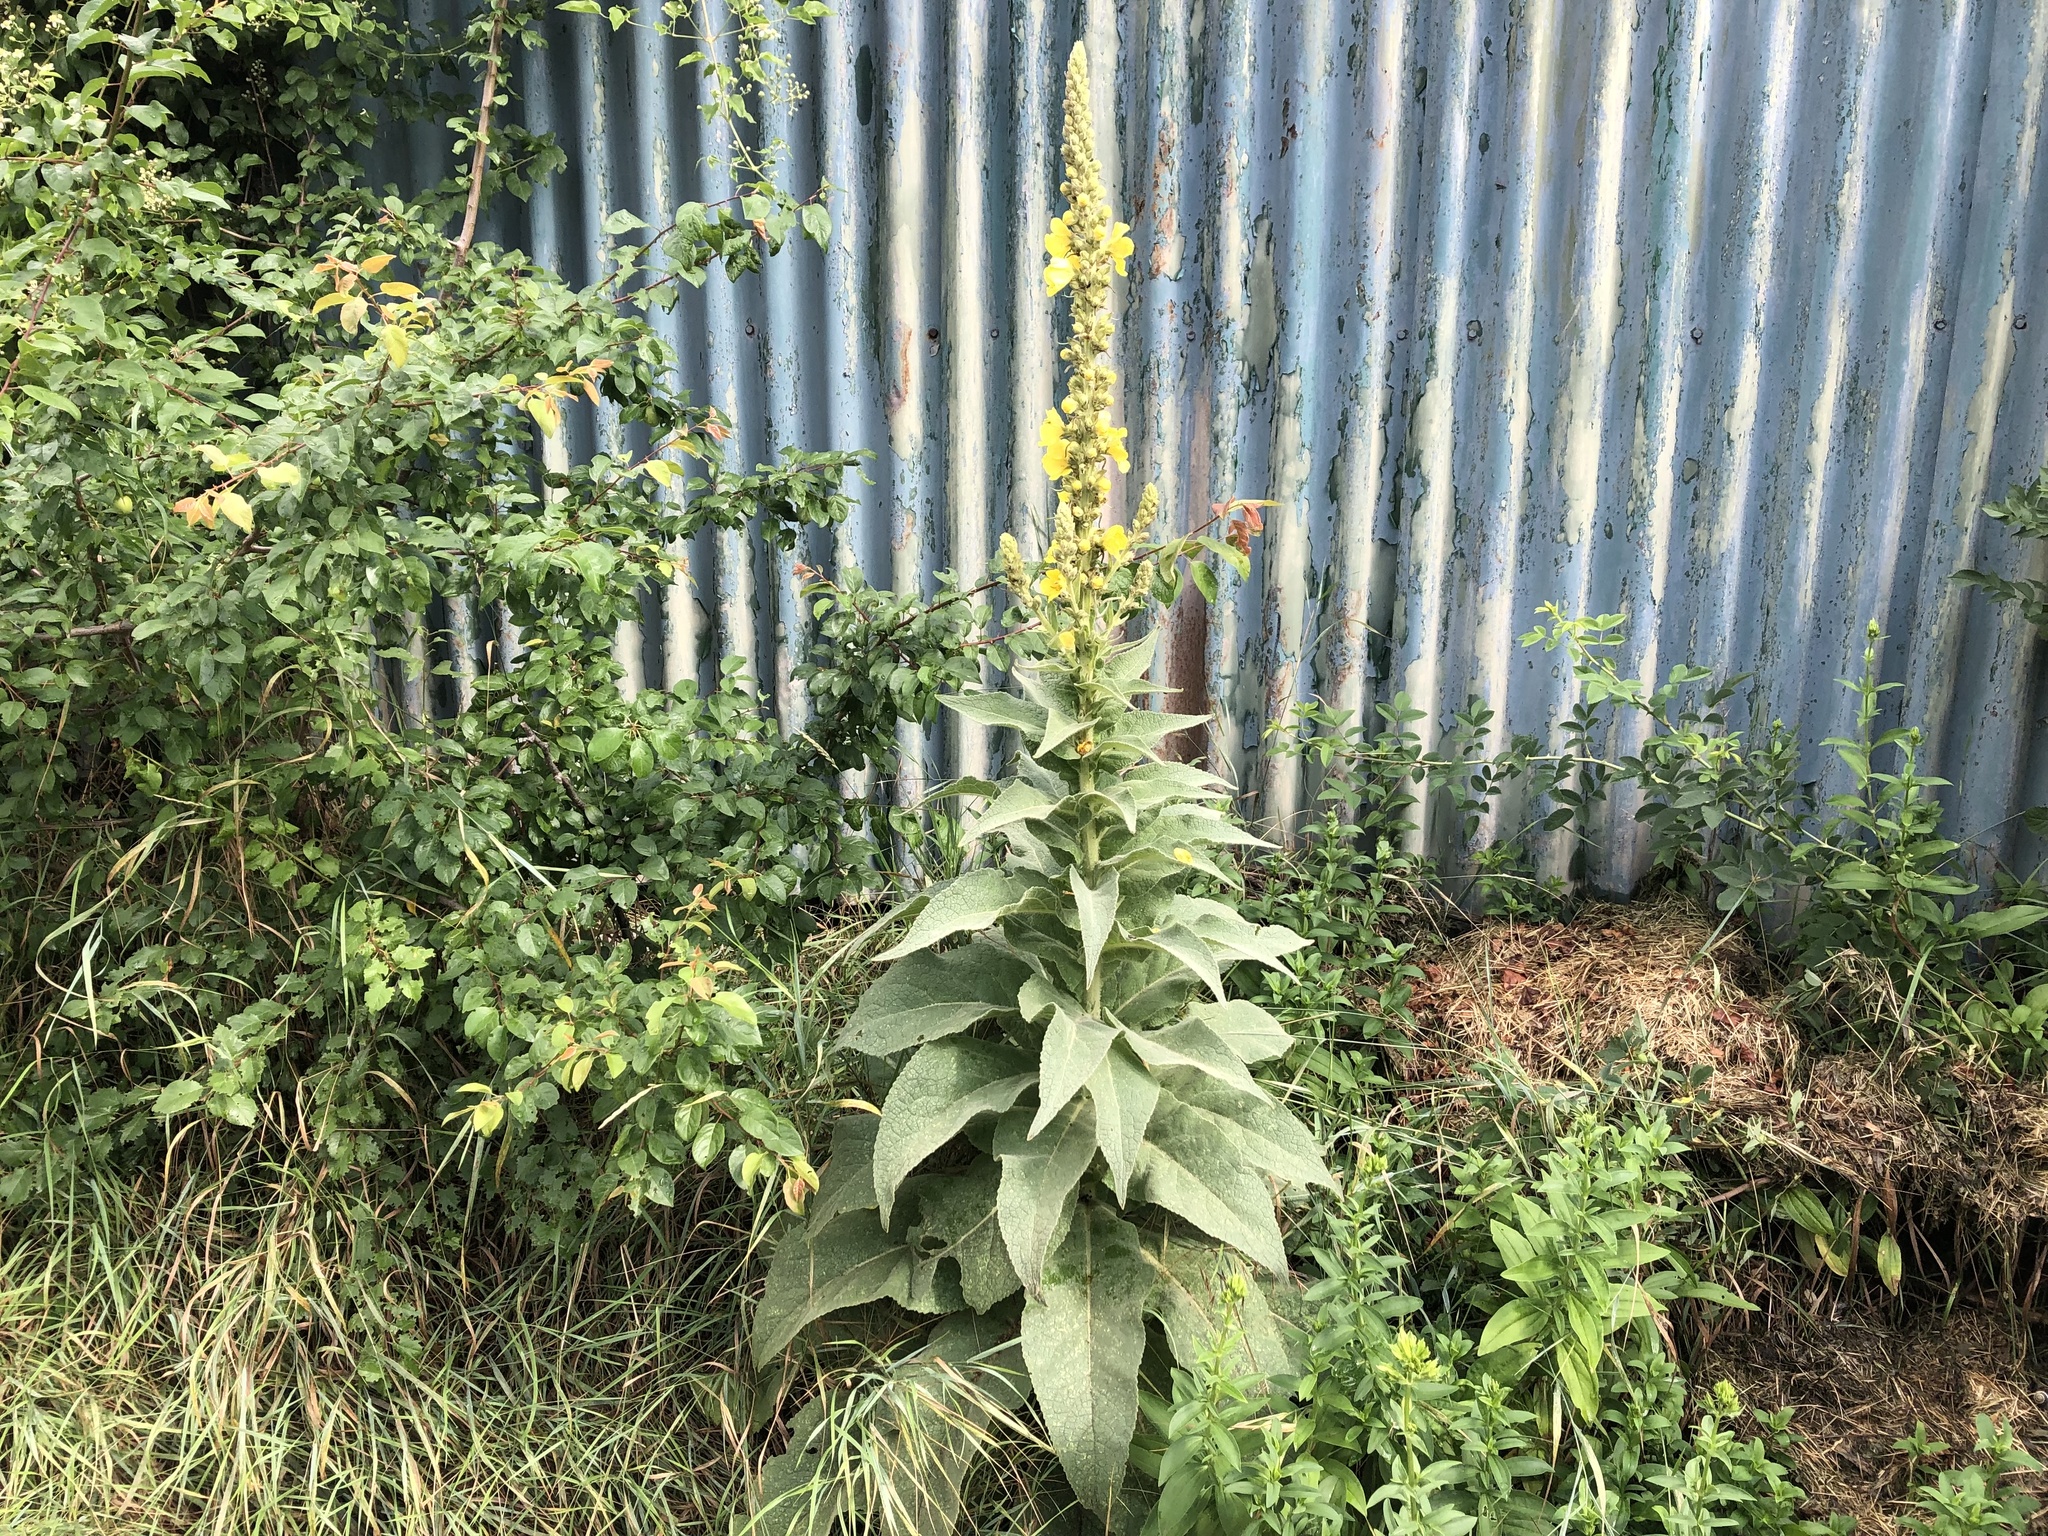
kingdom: Plantae
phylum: Tracheophyta
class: Magnoliopsida
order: Lamiales
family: Scrophulariaceae
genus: Verbascum
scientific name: Verbascum phlomoides
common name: Orange mullein
